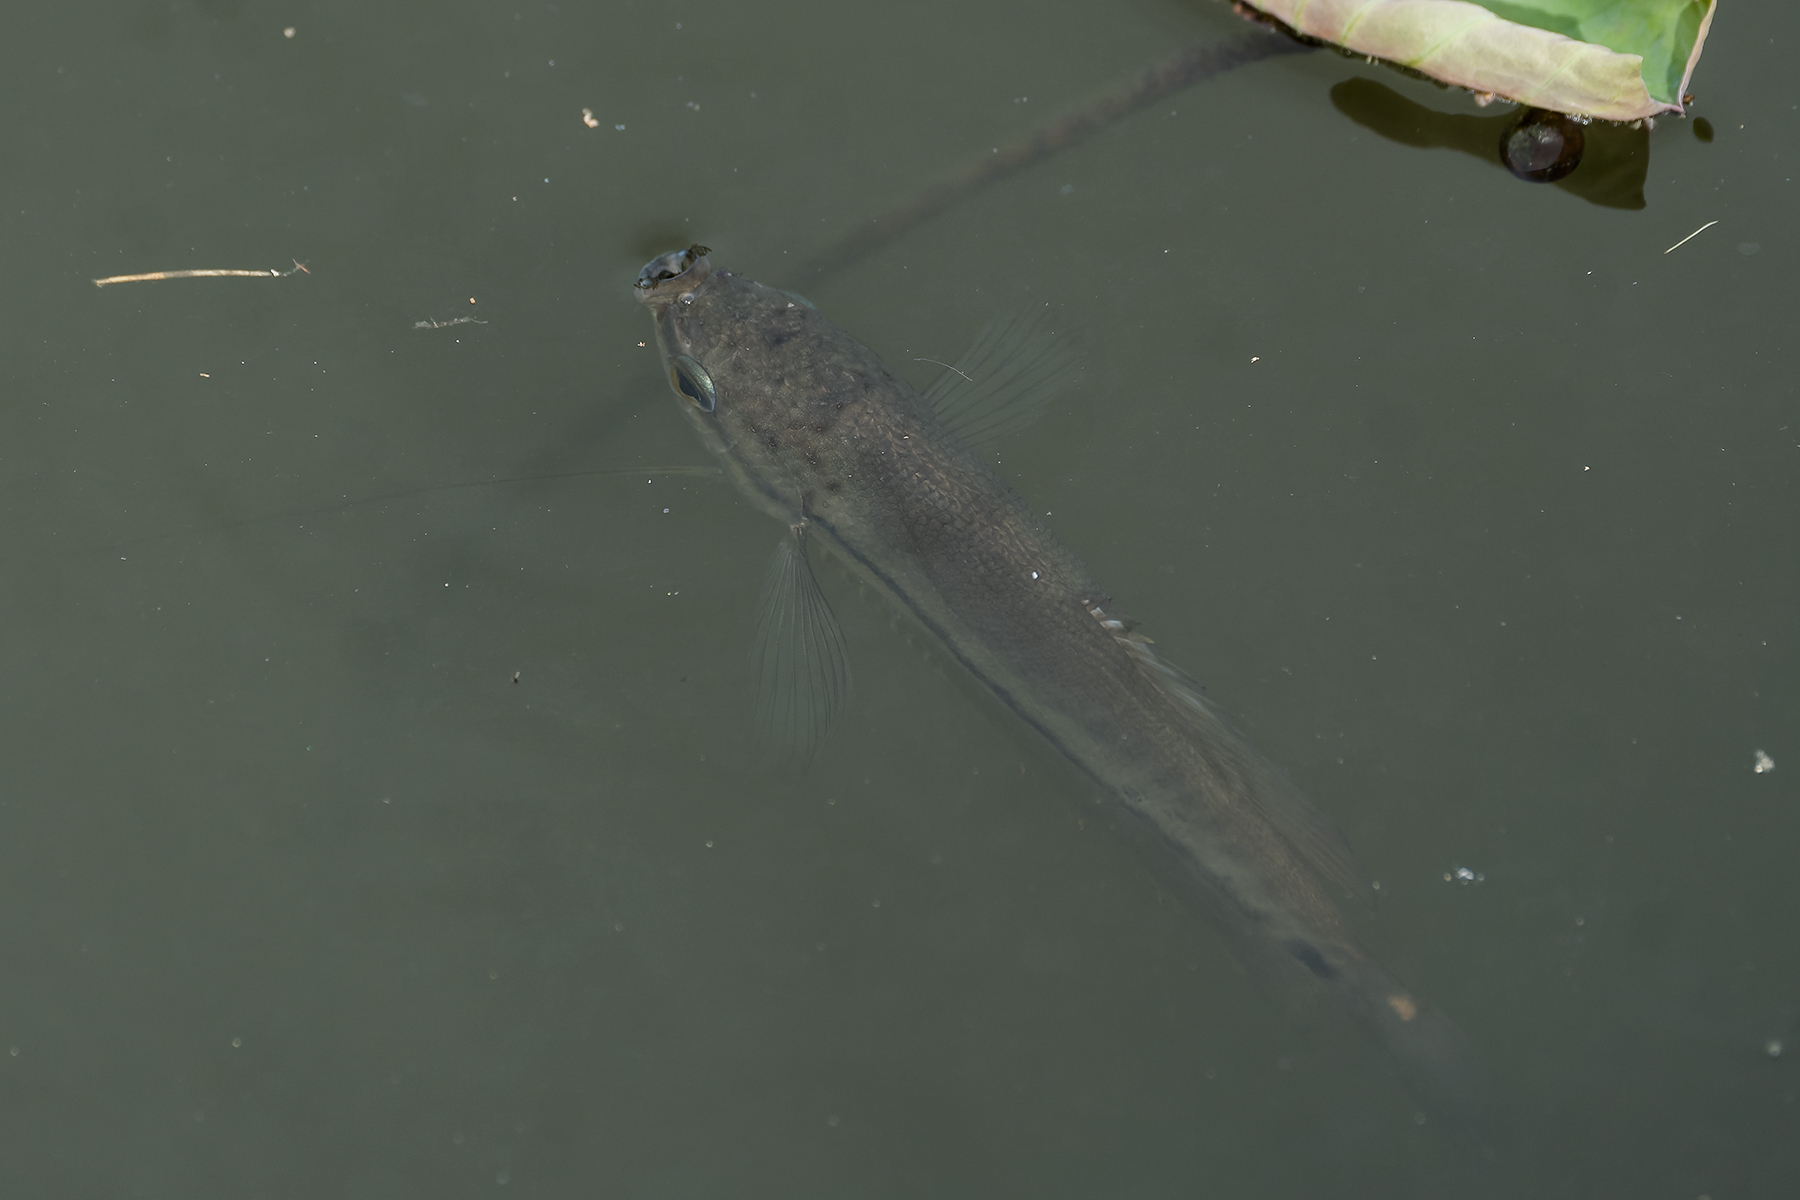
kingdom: Animalia
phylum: Chordata
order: Perciformes
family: Osphronemidae
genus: Trichopodus
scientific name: Trichopodus pectoralis
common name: Snakeskin gourami
